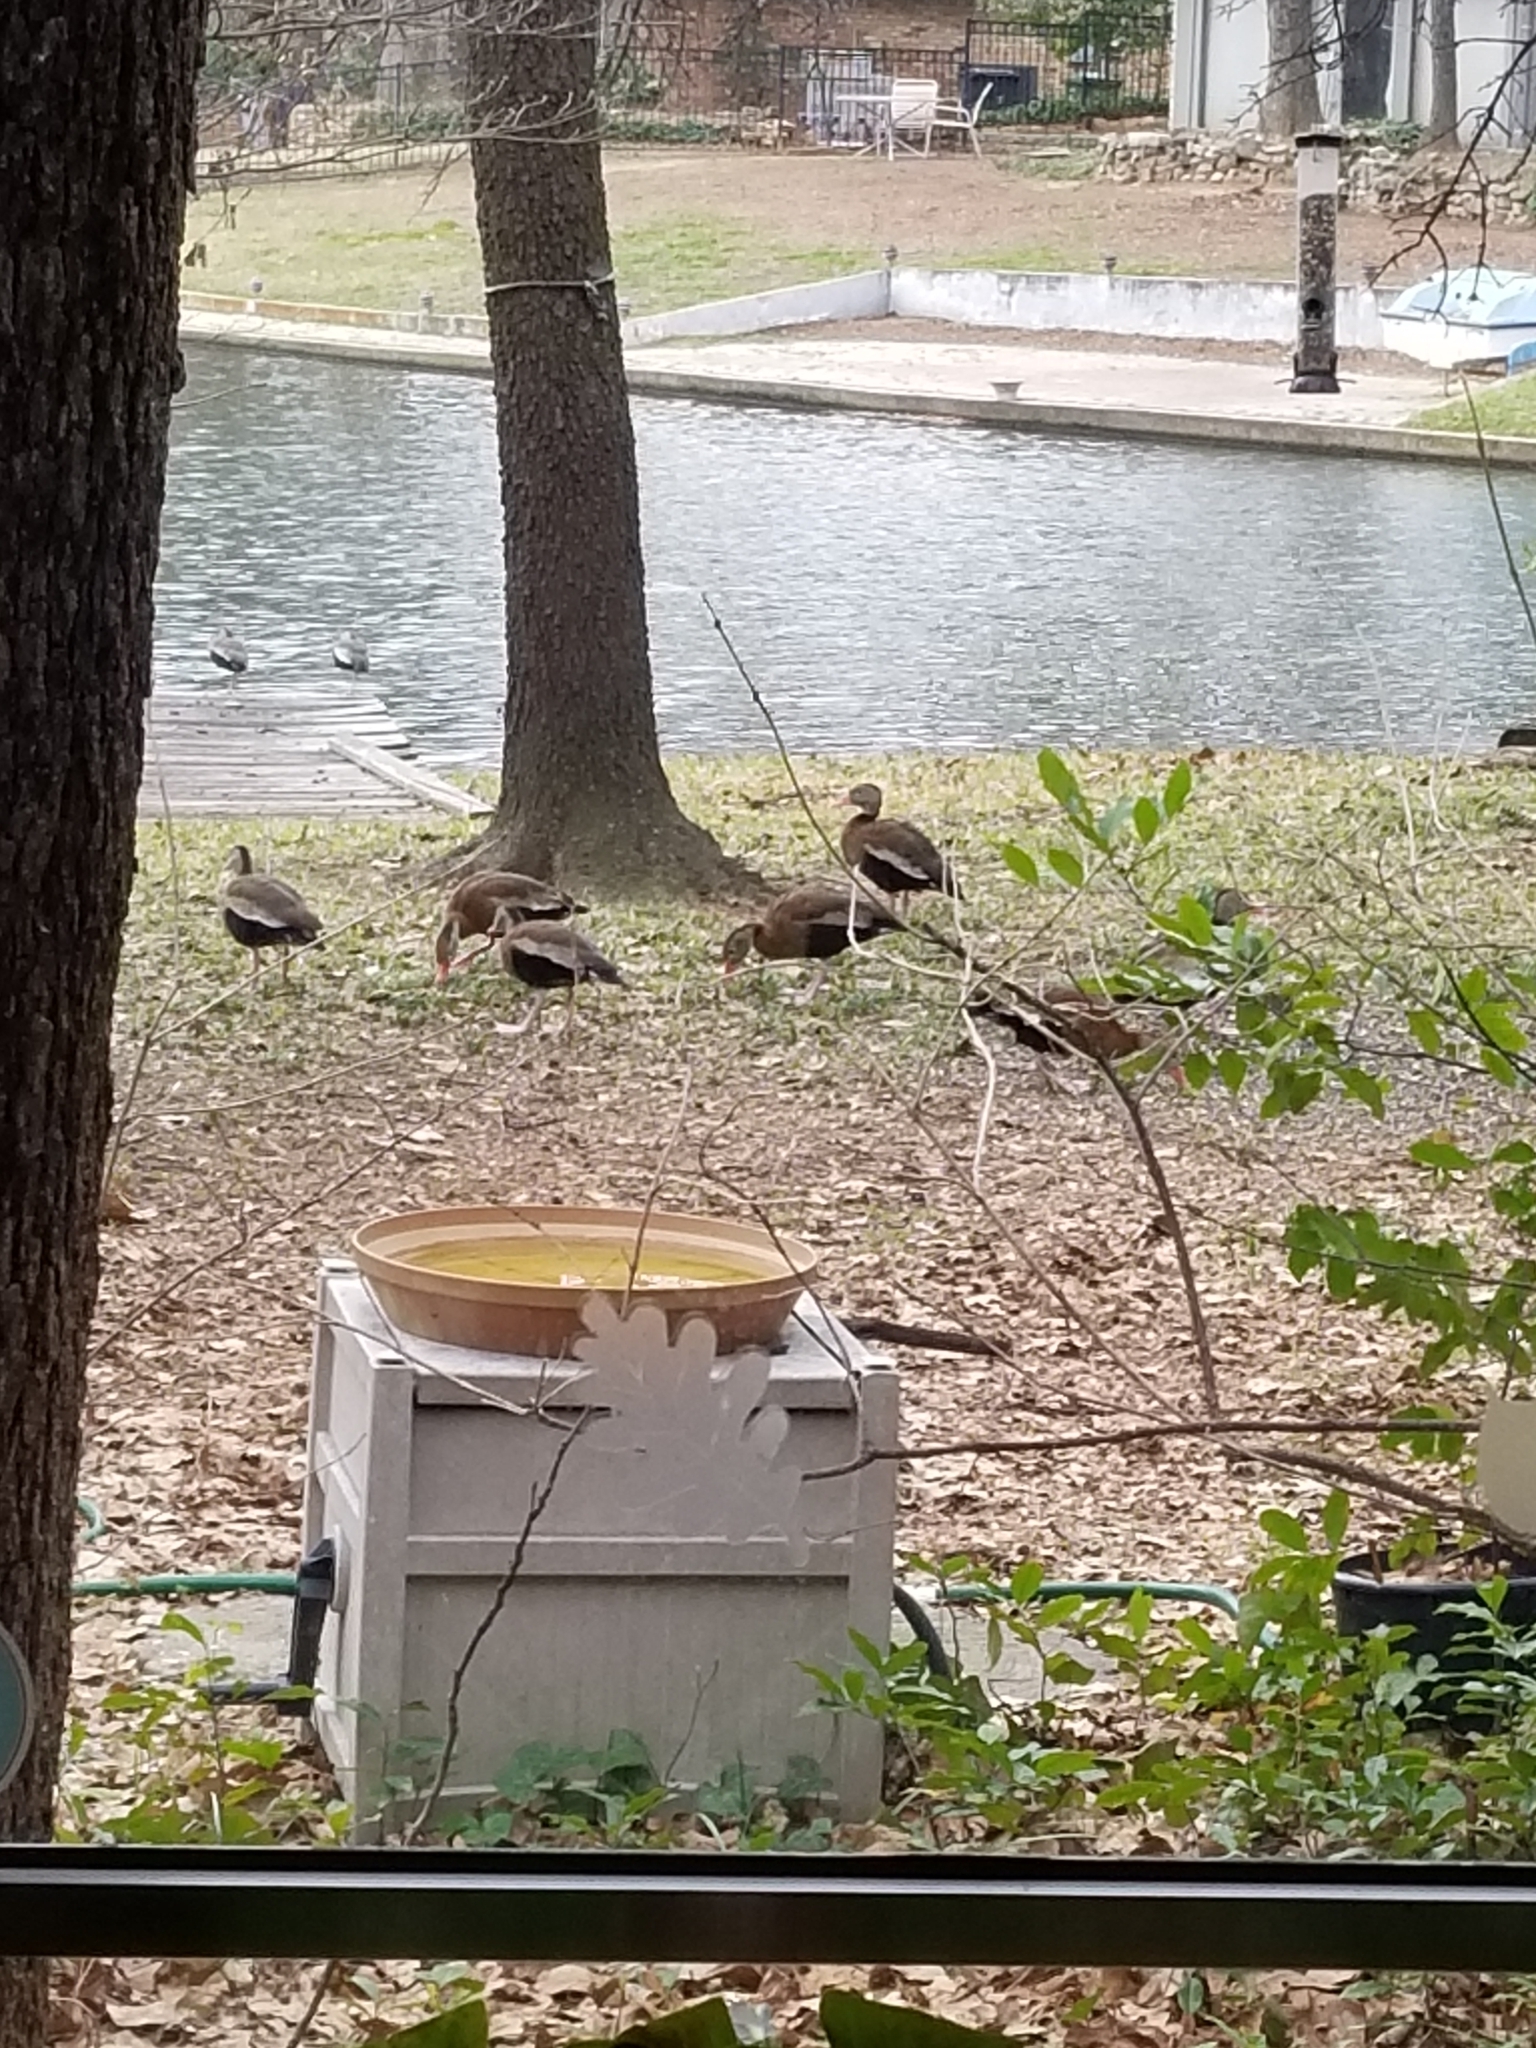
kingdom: Animalia
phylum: Chordata
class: Aves
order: Anseriformes
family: Anatidae
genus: Dendrocygna
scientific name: Dendrocygna autumnalis
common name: Black-bellied whistling duck
